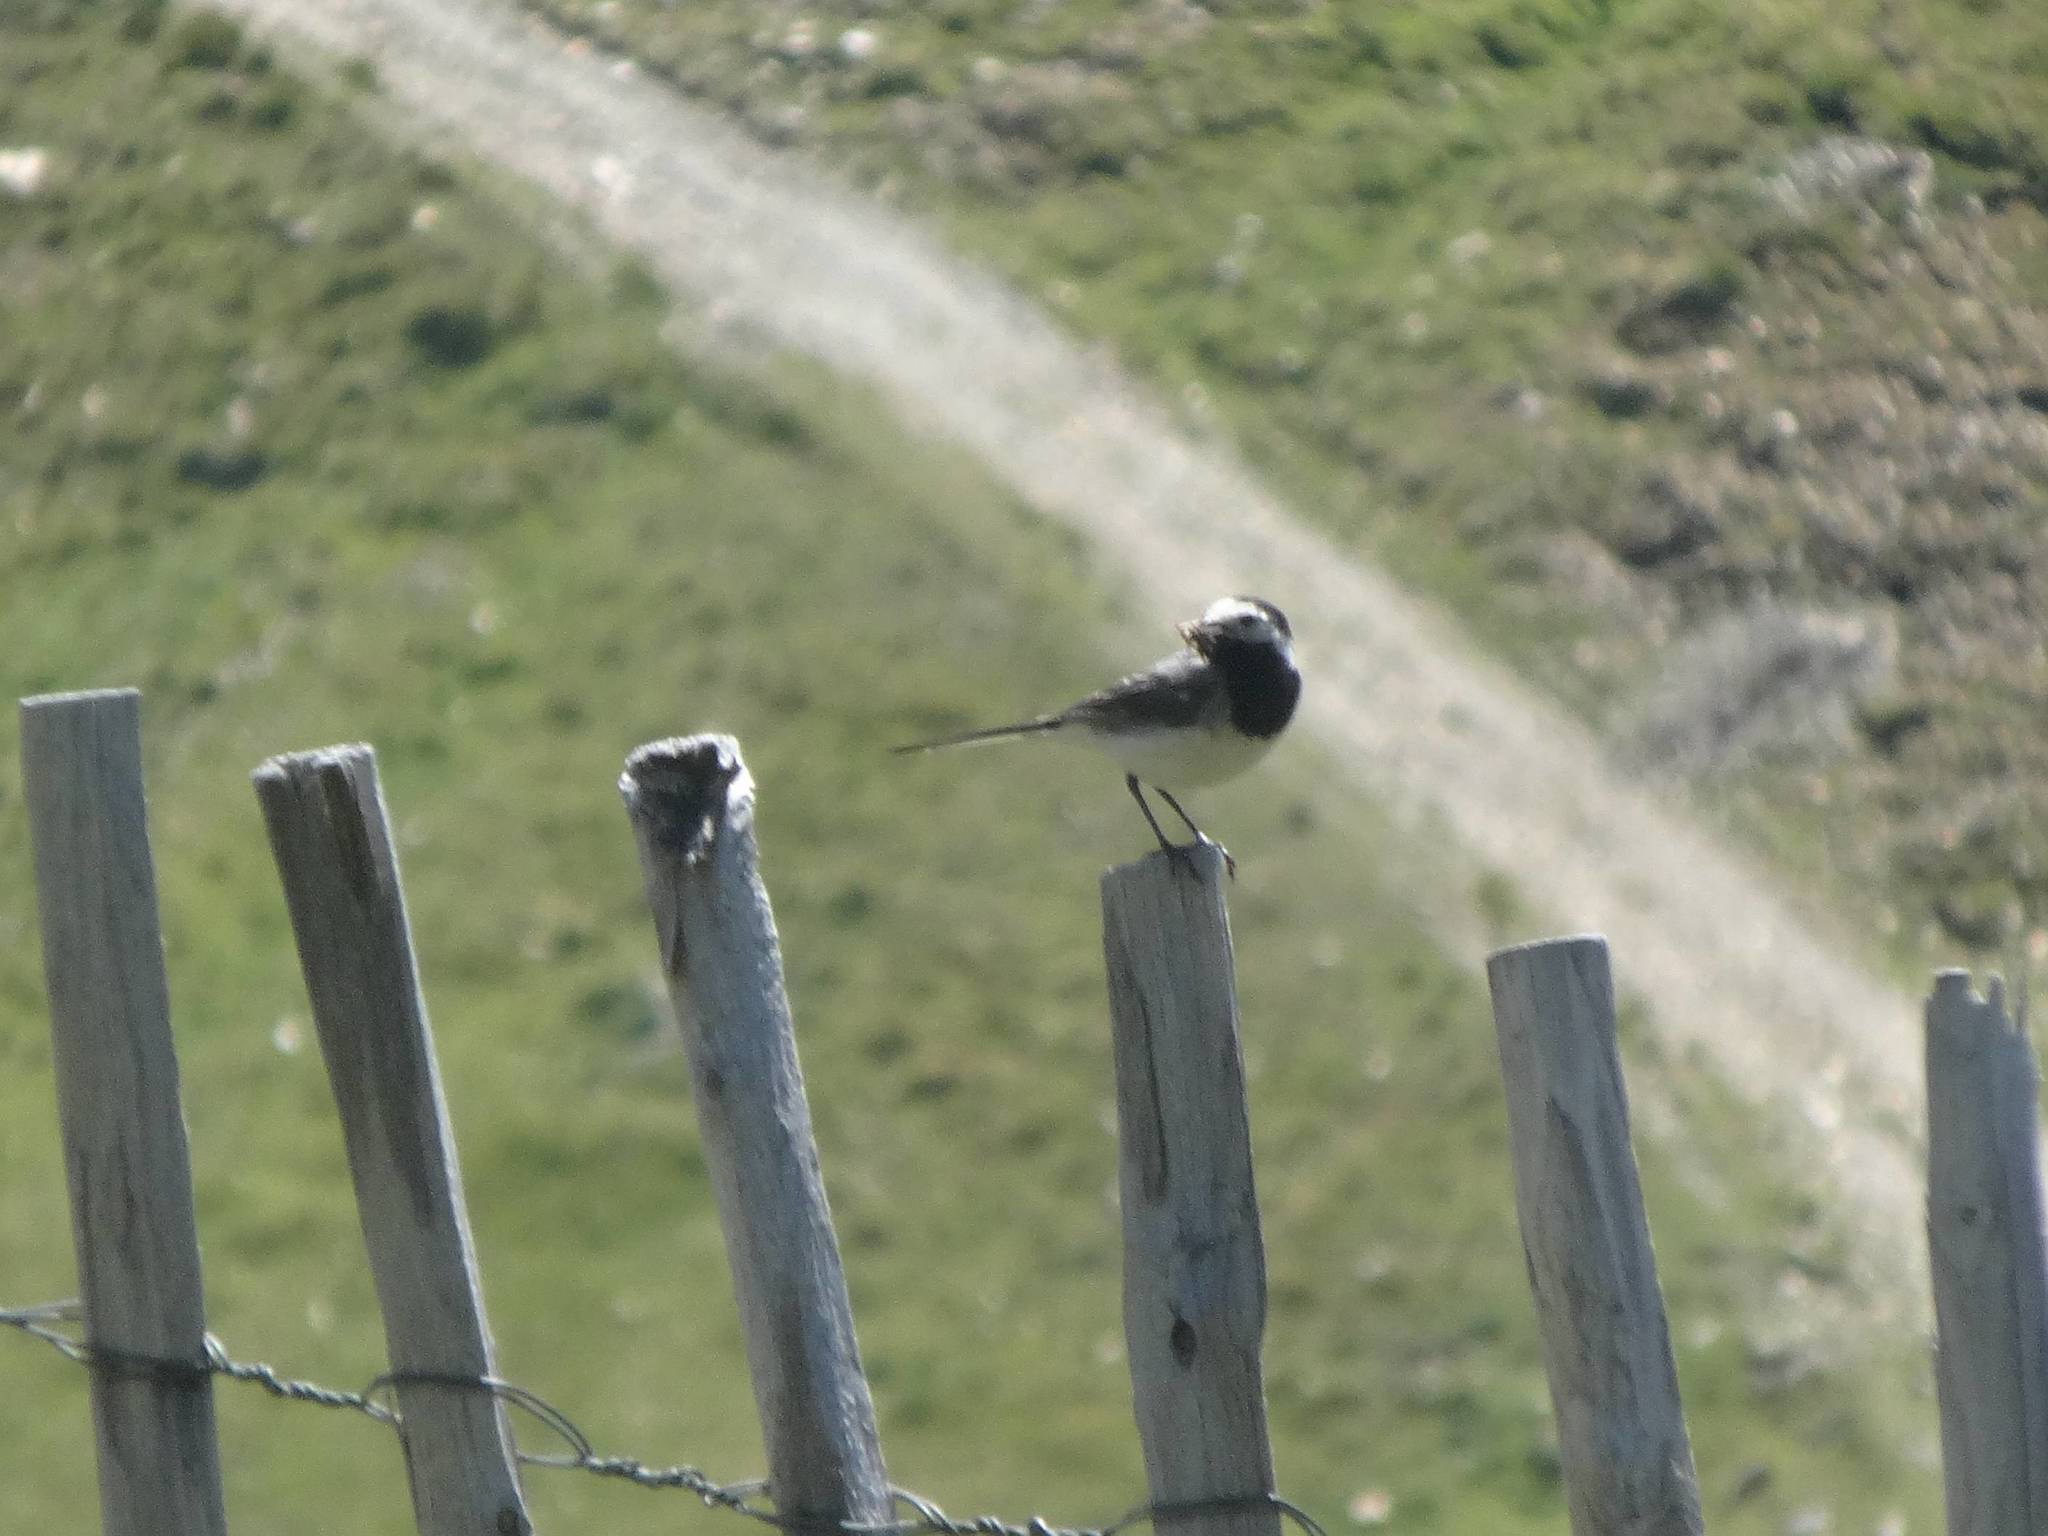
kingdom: Animalia
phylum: Chordata
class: Aves
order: Passeriformes
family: Motacillidae
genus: Motacilla
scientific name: Motacilla alba
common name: White wagtail
